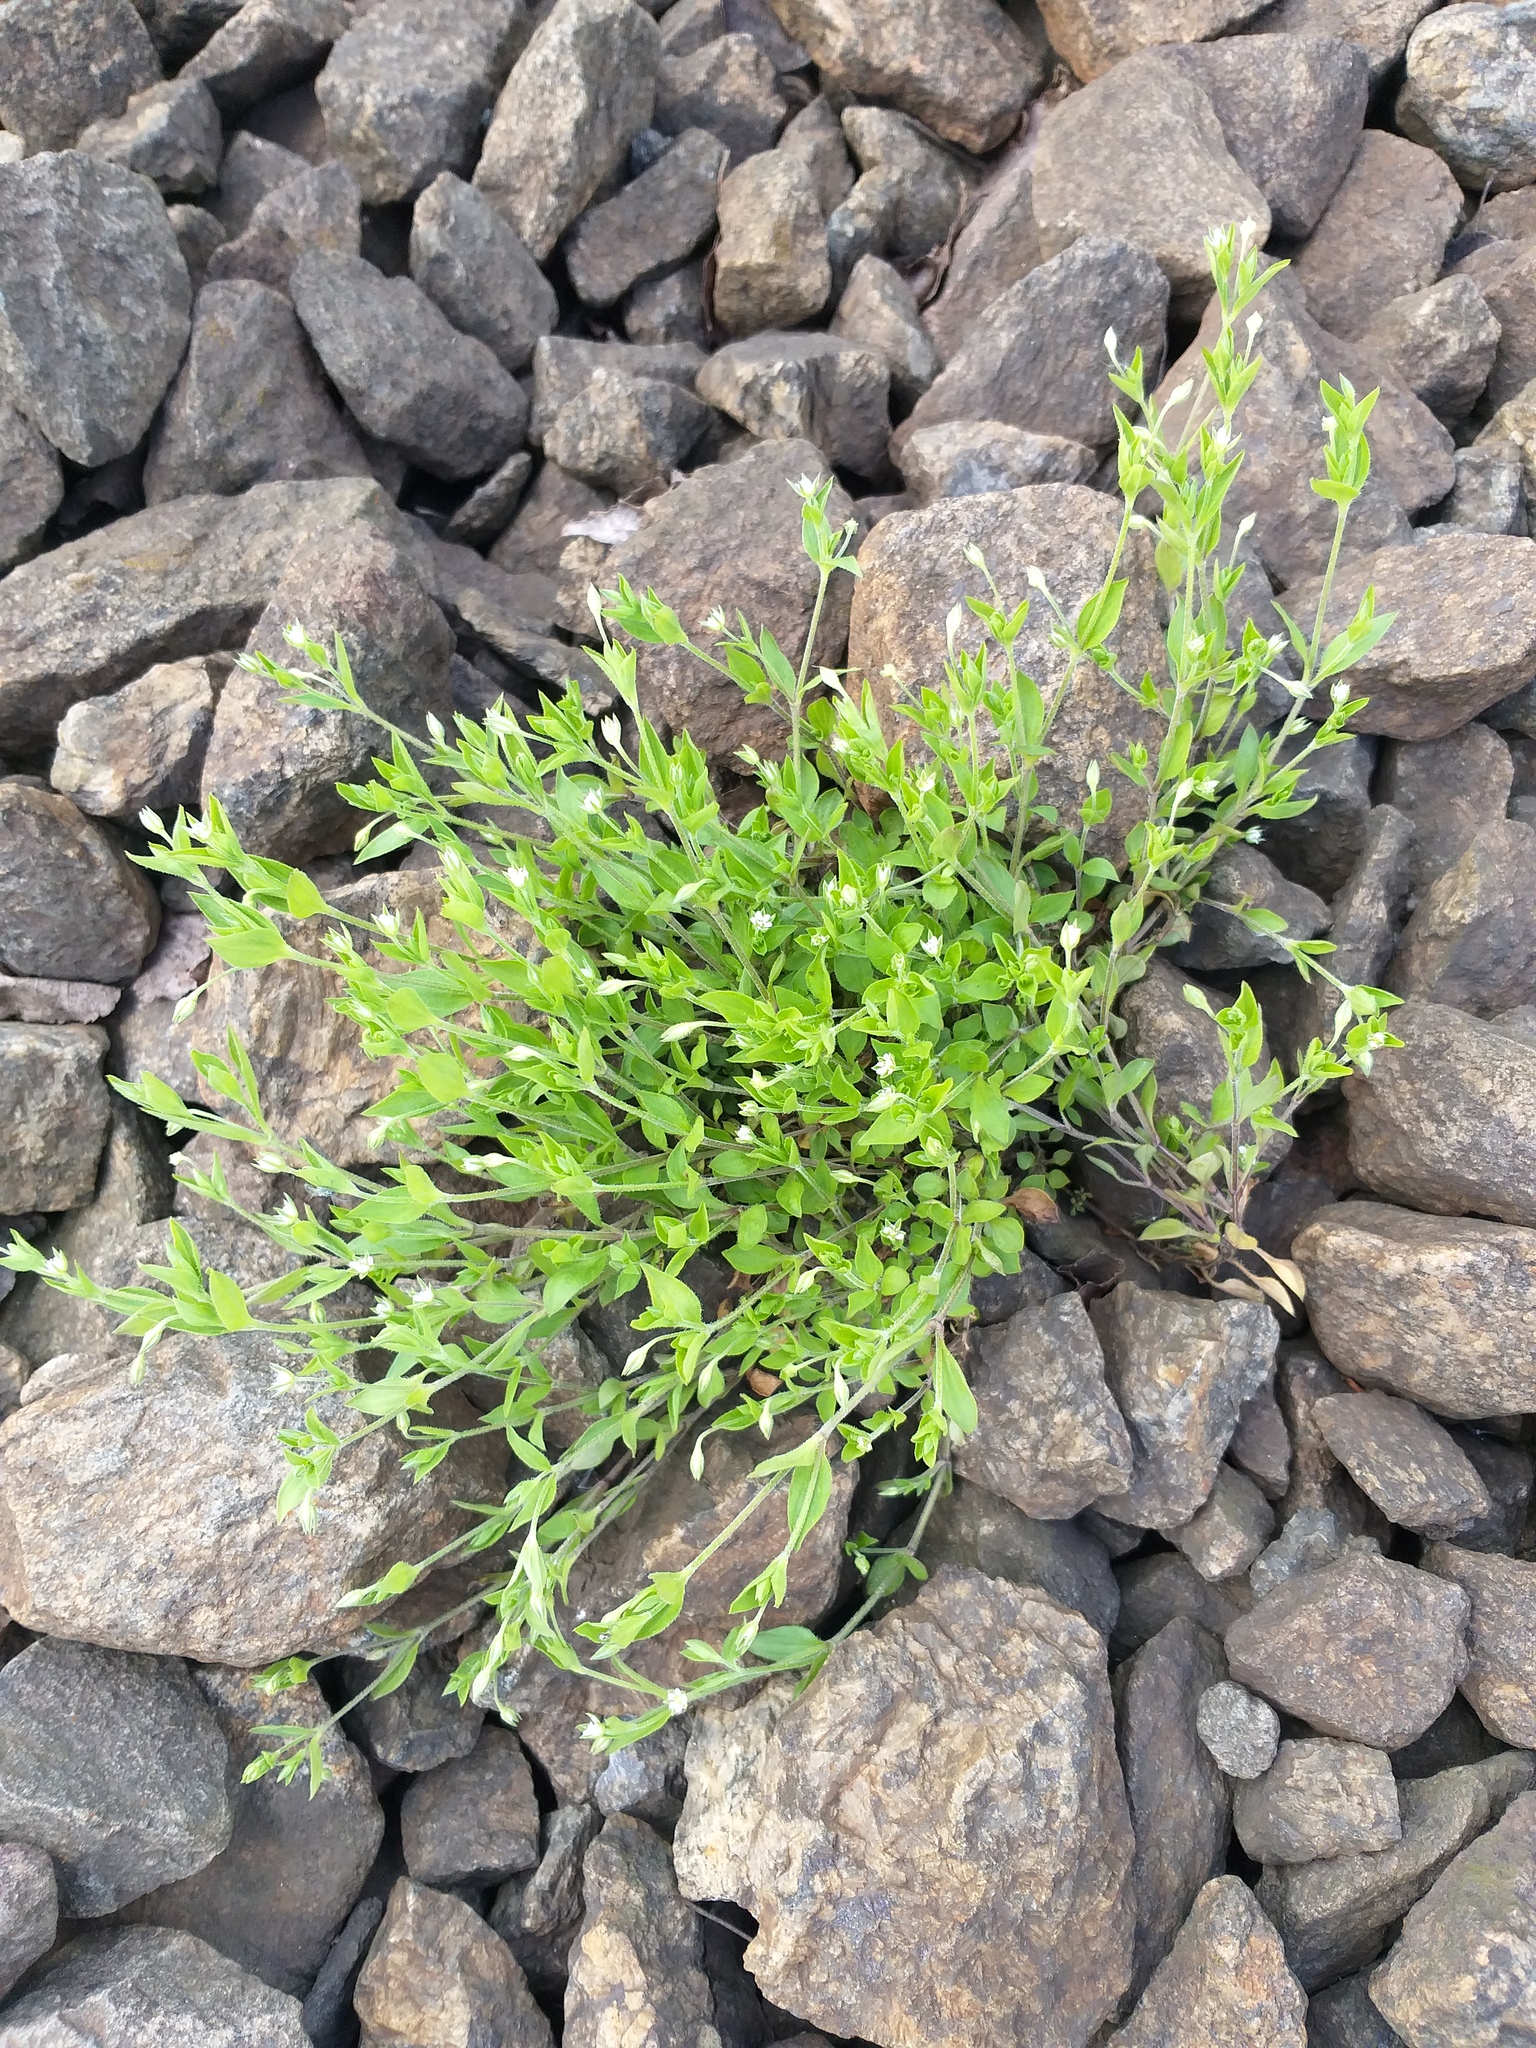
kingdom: Plantae
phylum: Tracheophyta
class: Magnoliopsida
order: Caryophyllales
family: Caryophyllaceae
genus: Moehringia
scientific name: Moehringia trinervia
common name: Three-nerved sandwort
